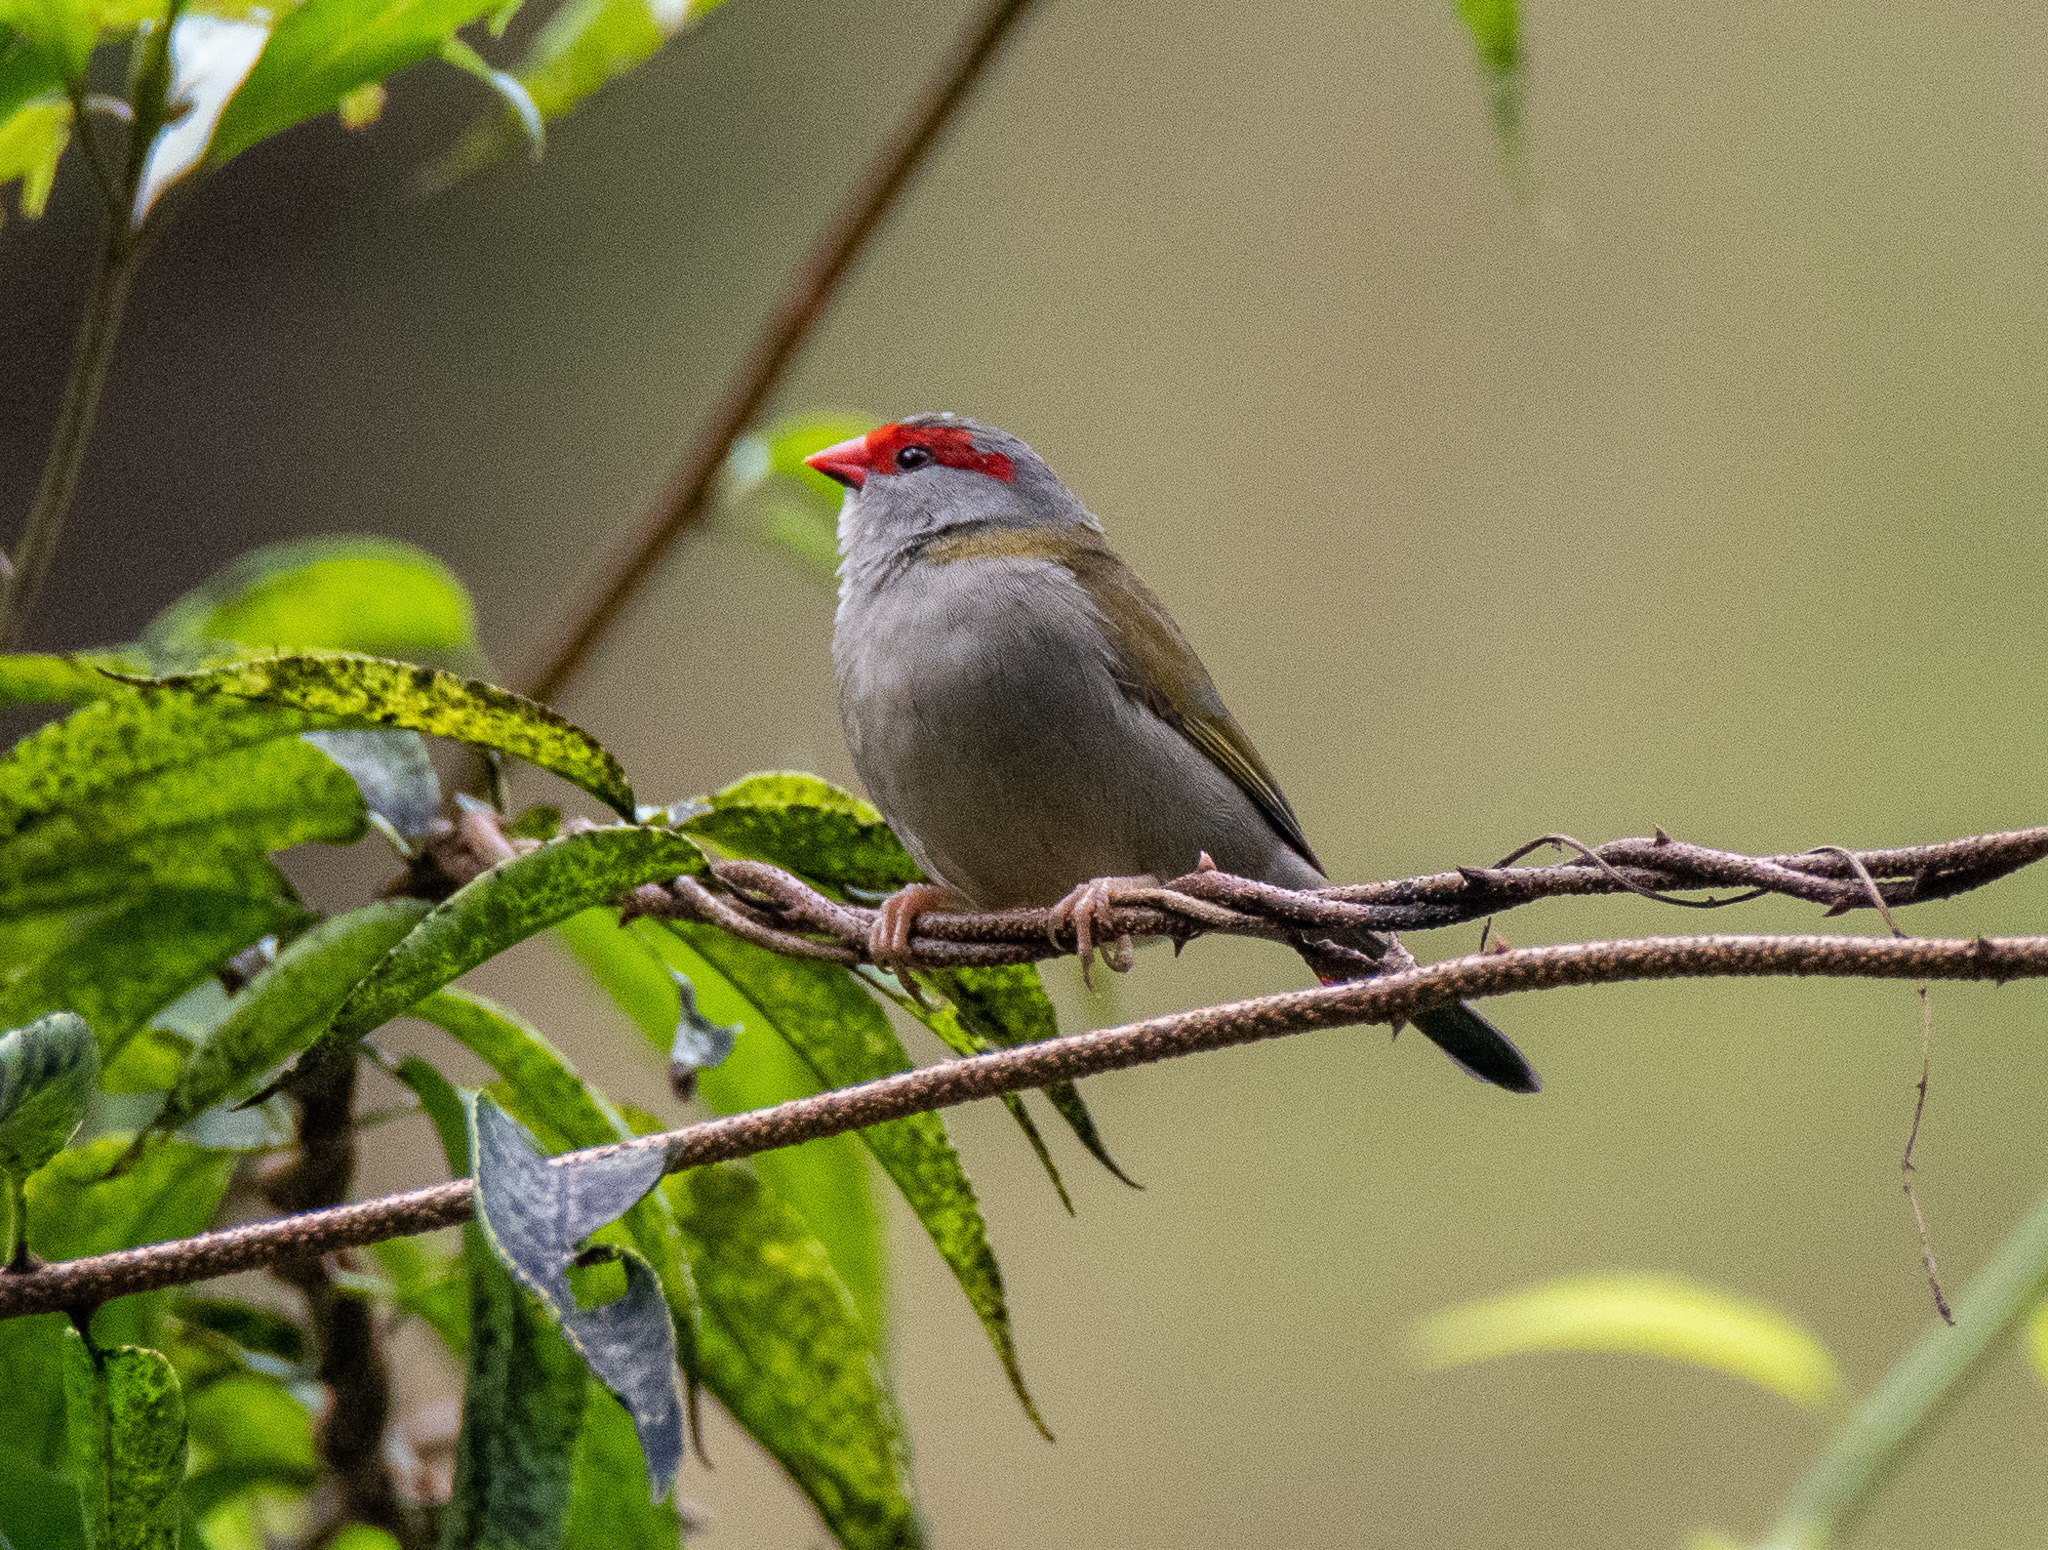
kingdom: Animalia
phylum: Chordata
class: Aves
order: Passeriformes
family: Estrildidae
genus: Neochmia
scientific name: Neochmia temporalis
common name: Red-browed finch
